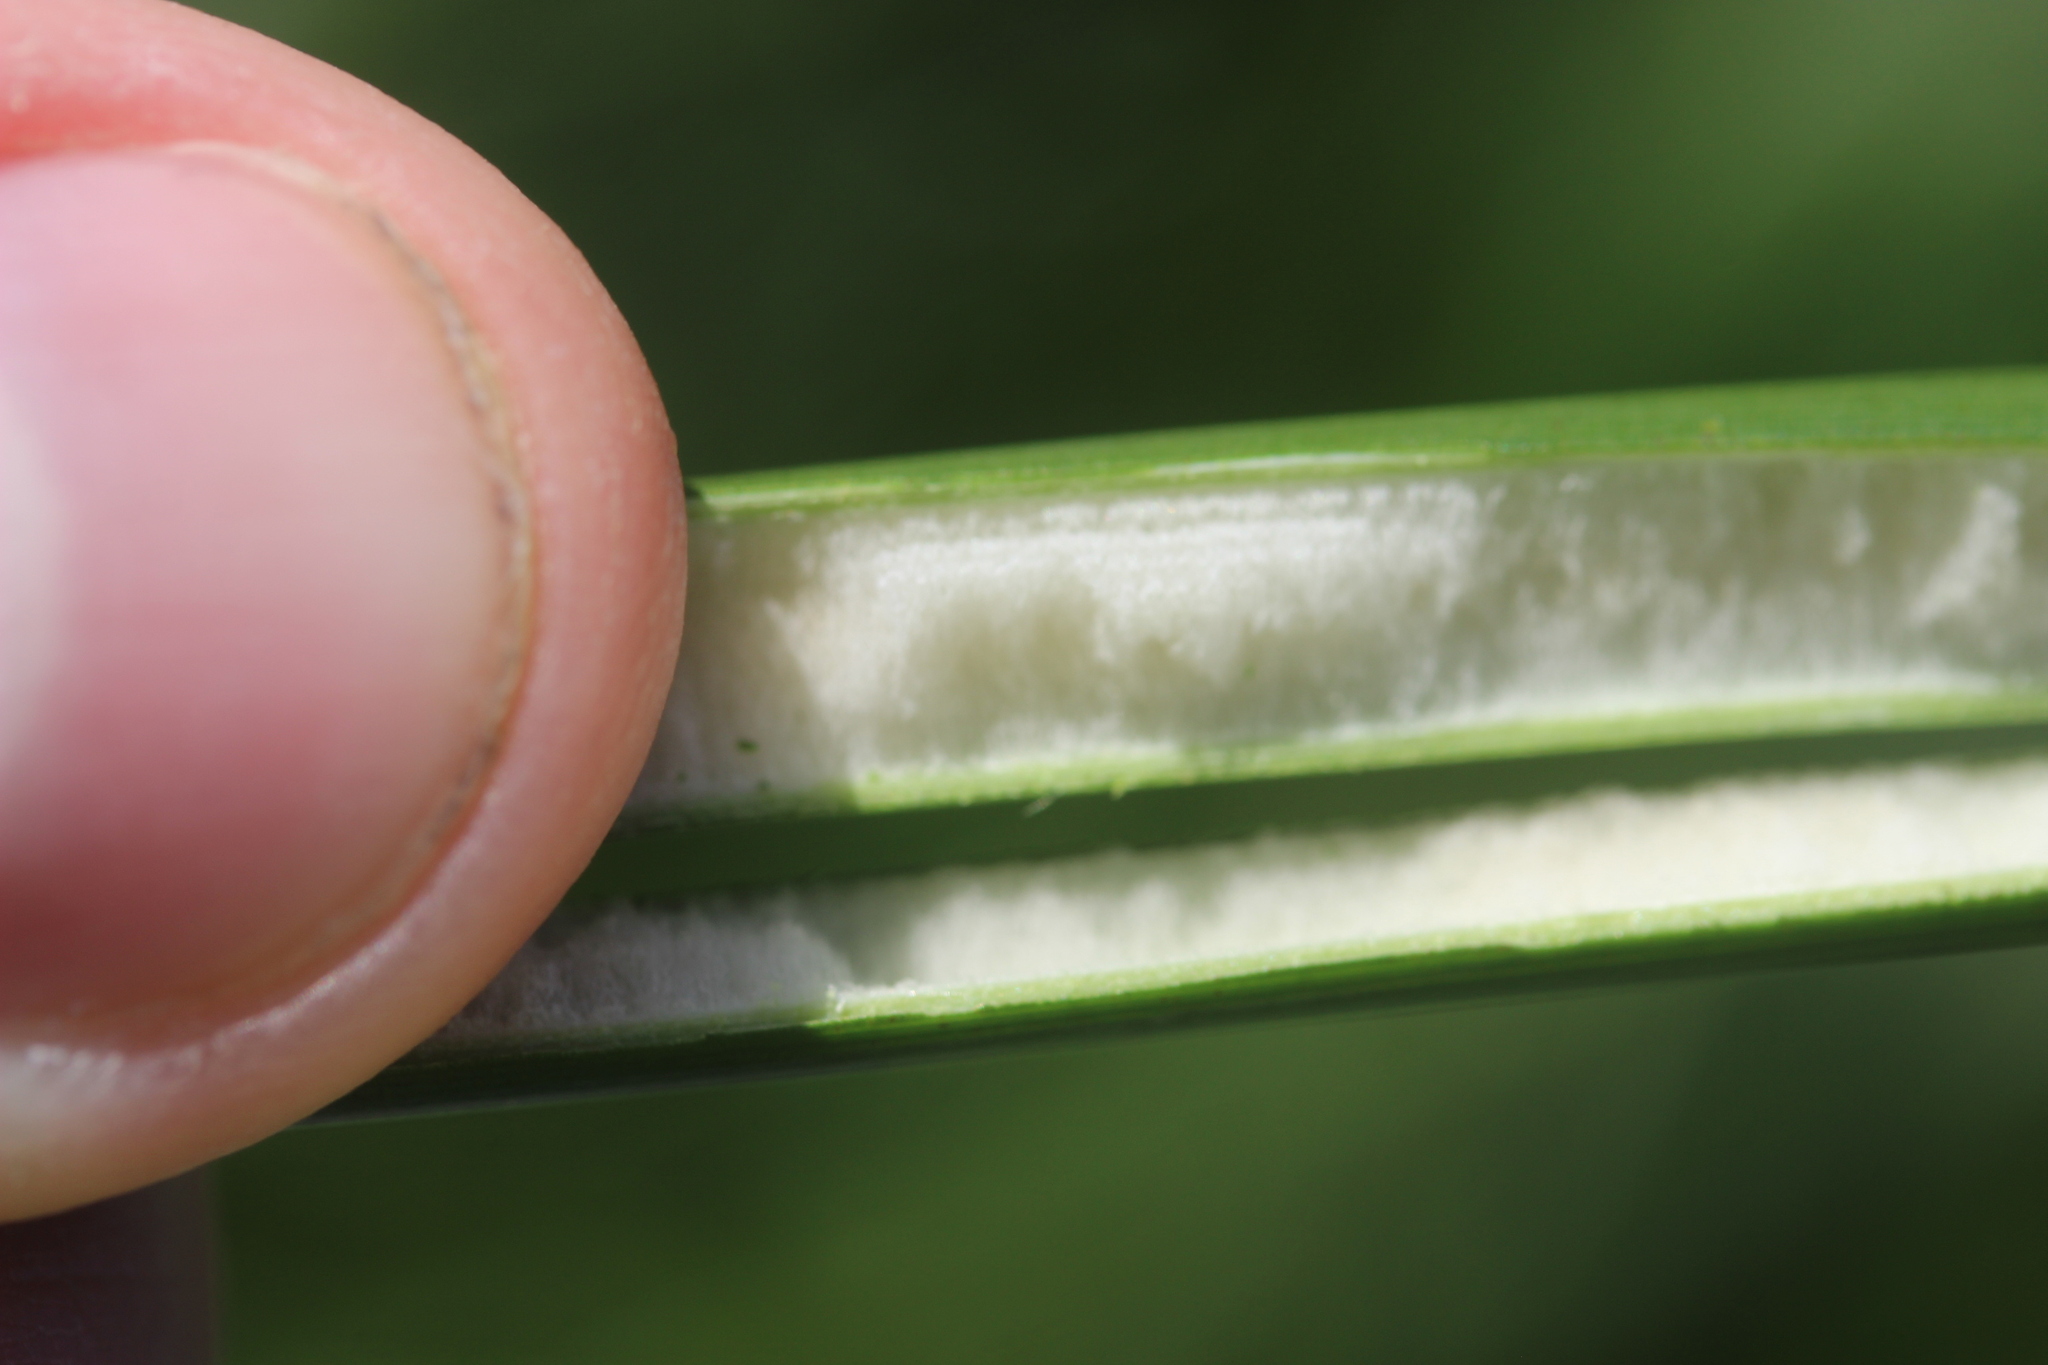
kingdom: Plantae
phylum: Tracheophyta
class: Liliopsida
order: Poales
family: Juncaceae
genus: Juncus
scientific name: Juncus pallidus
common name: Great soft-rush
